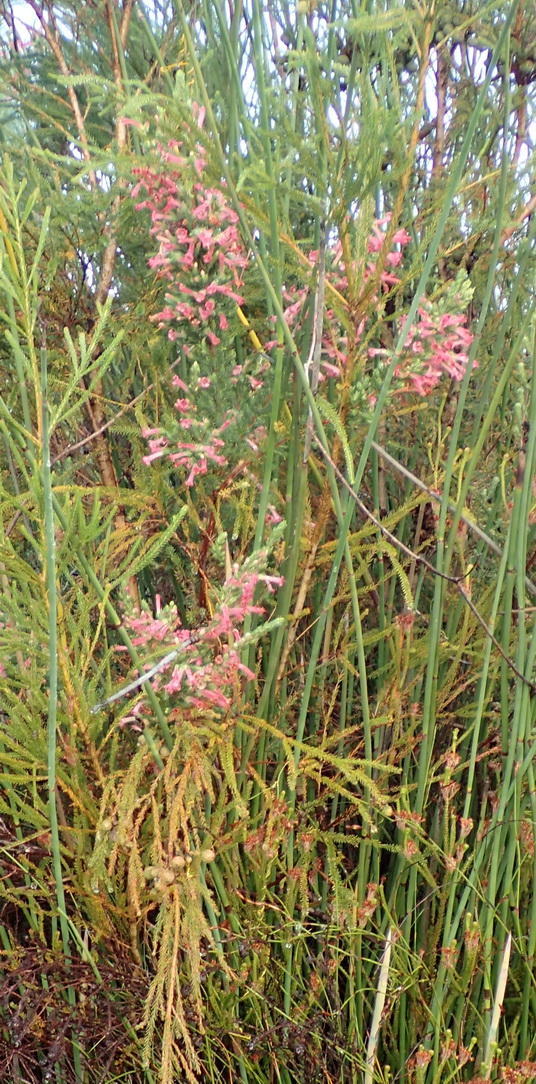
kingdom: Plantae
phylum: Tracheophyta
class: Magnoliopsida
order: Ericales
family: Ericaceae
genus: Erica
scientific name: Erica curviflora
